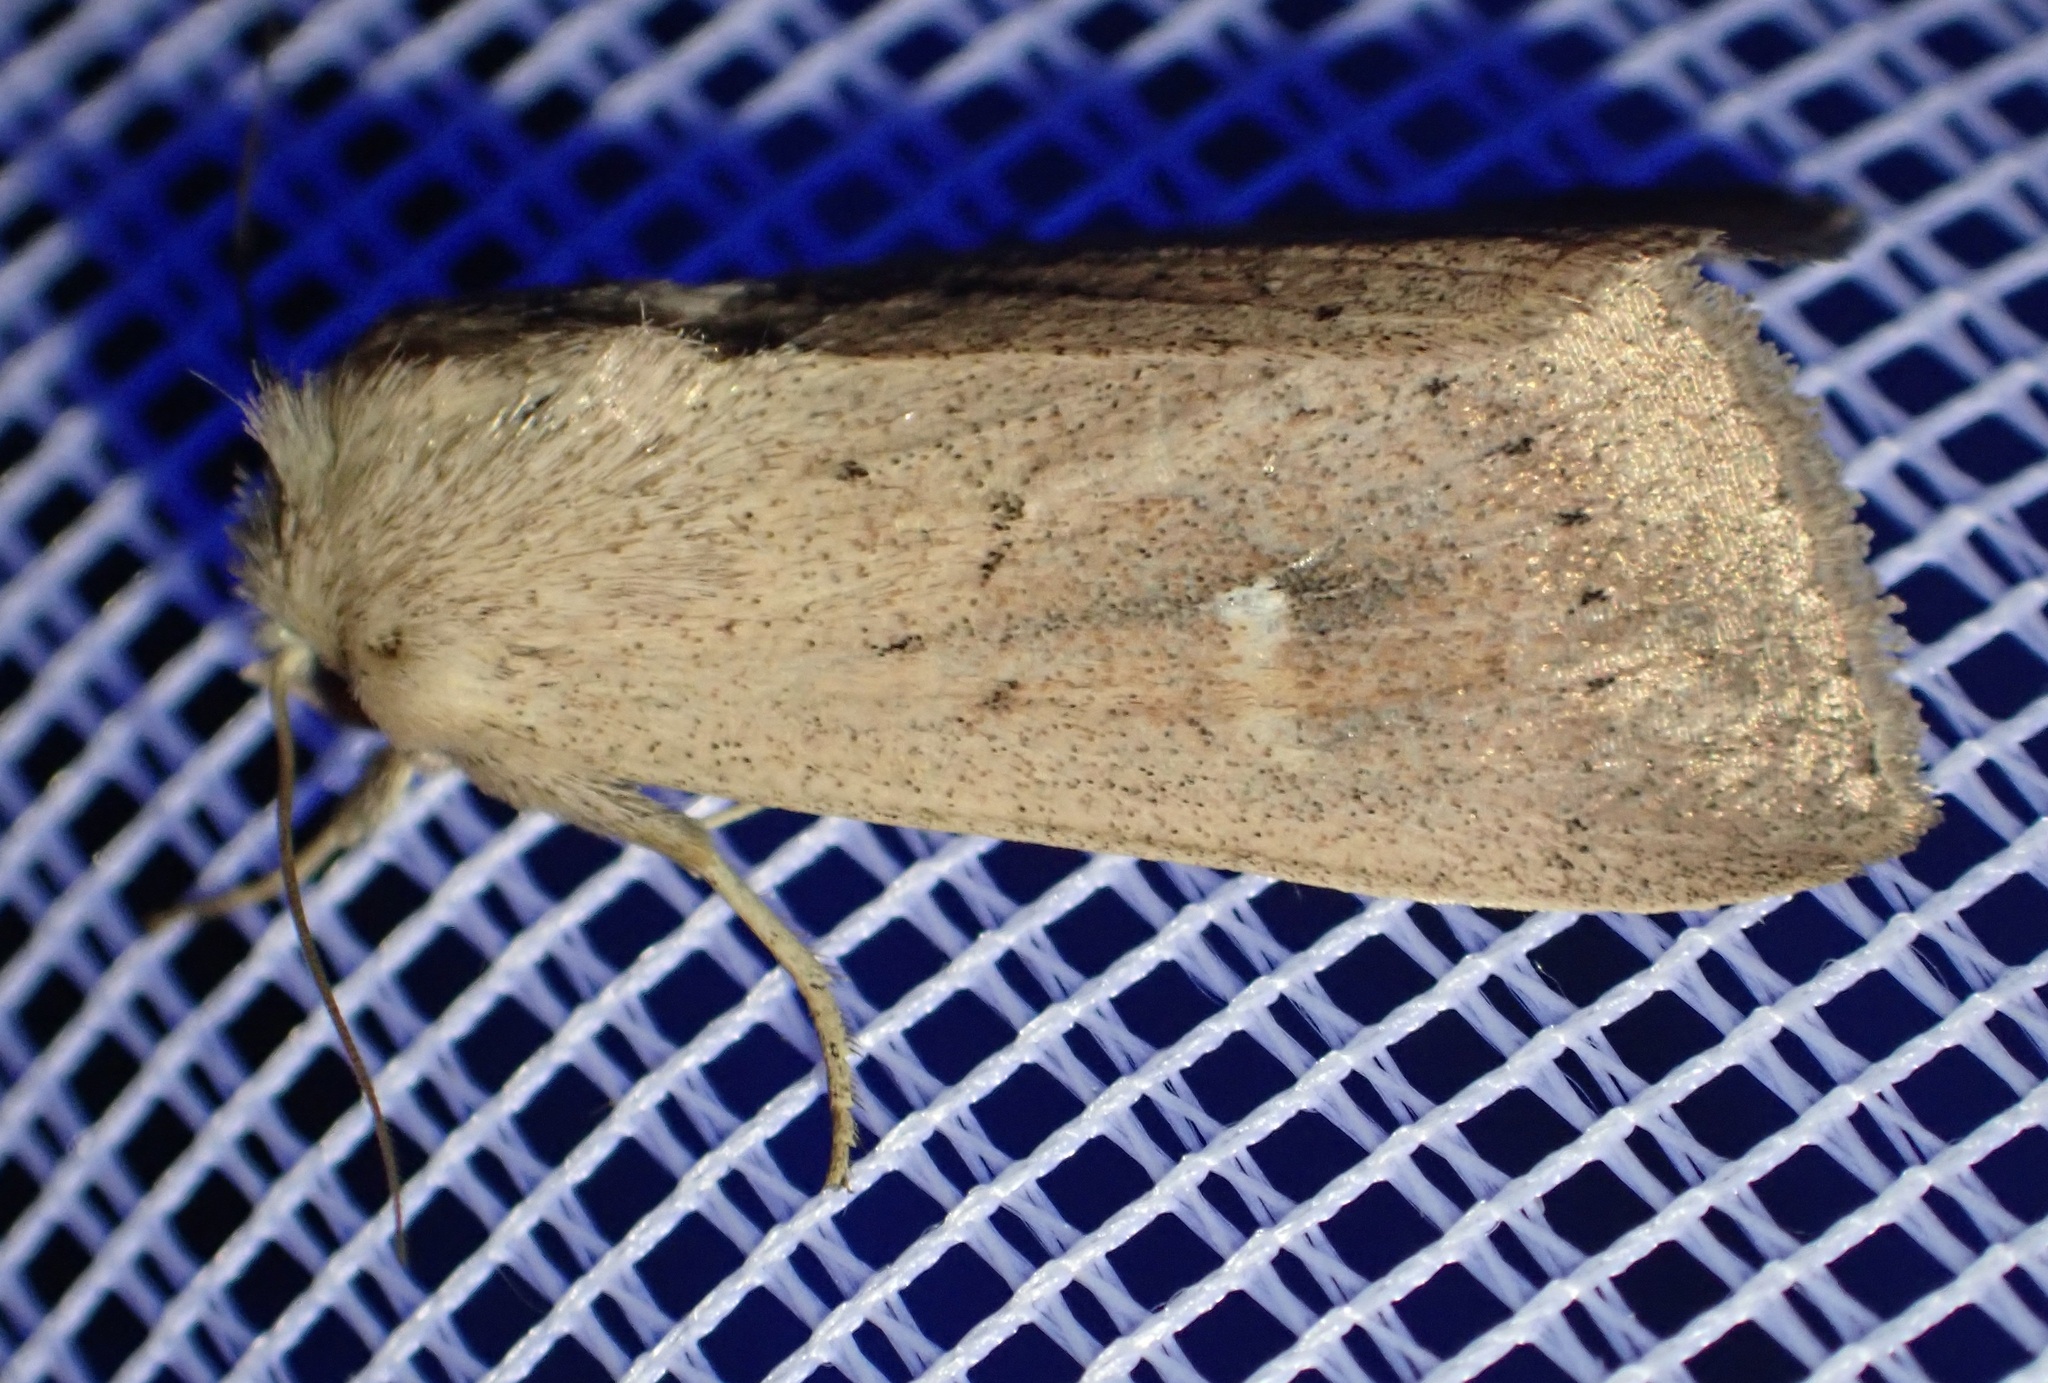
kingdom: Animalia
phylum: Arthropoda
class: Insecta
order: Lepidoptera
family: Noctuidae
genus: Mythimna
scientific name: Mythimna ferrago
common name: Clay
